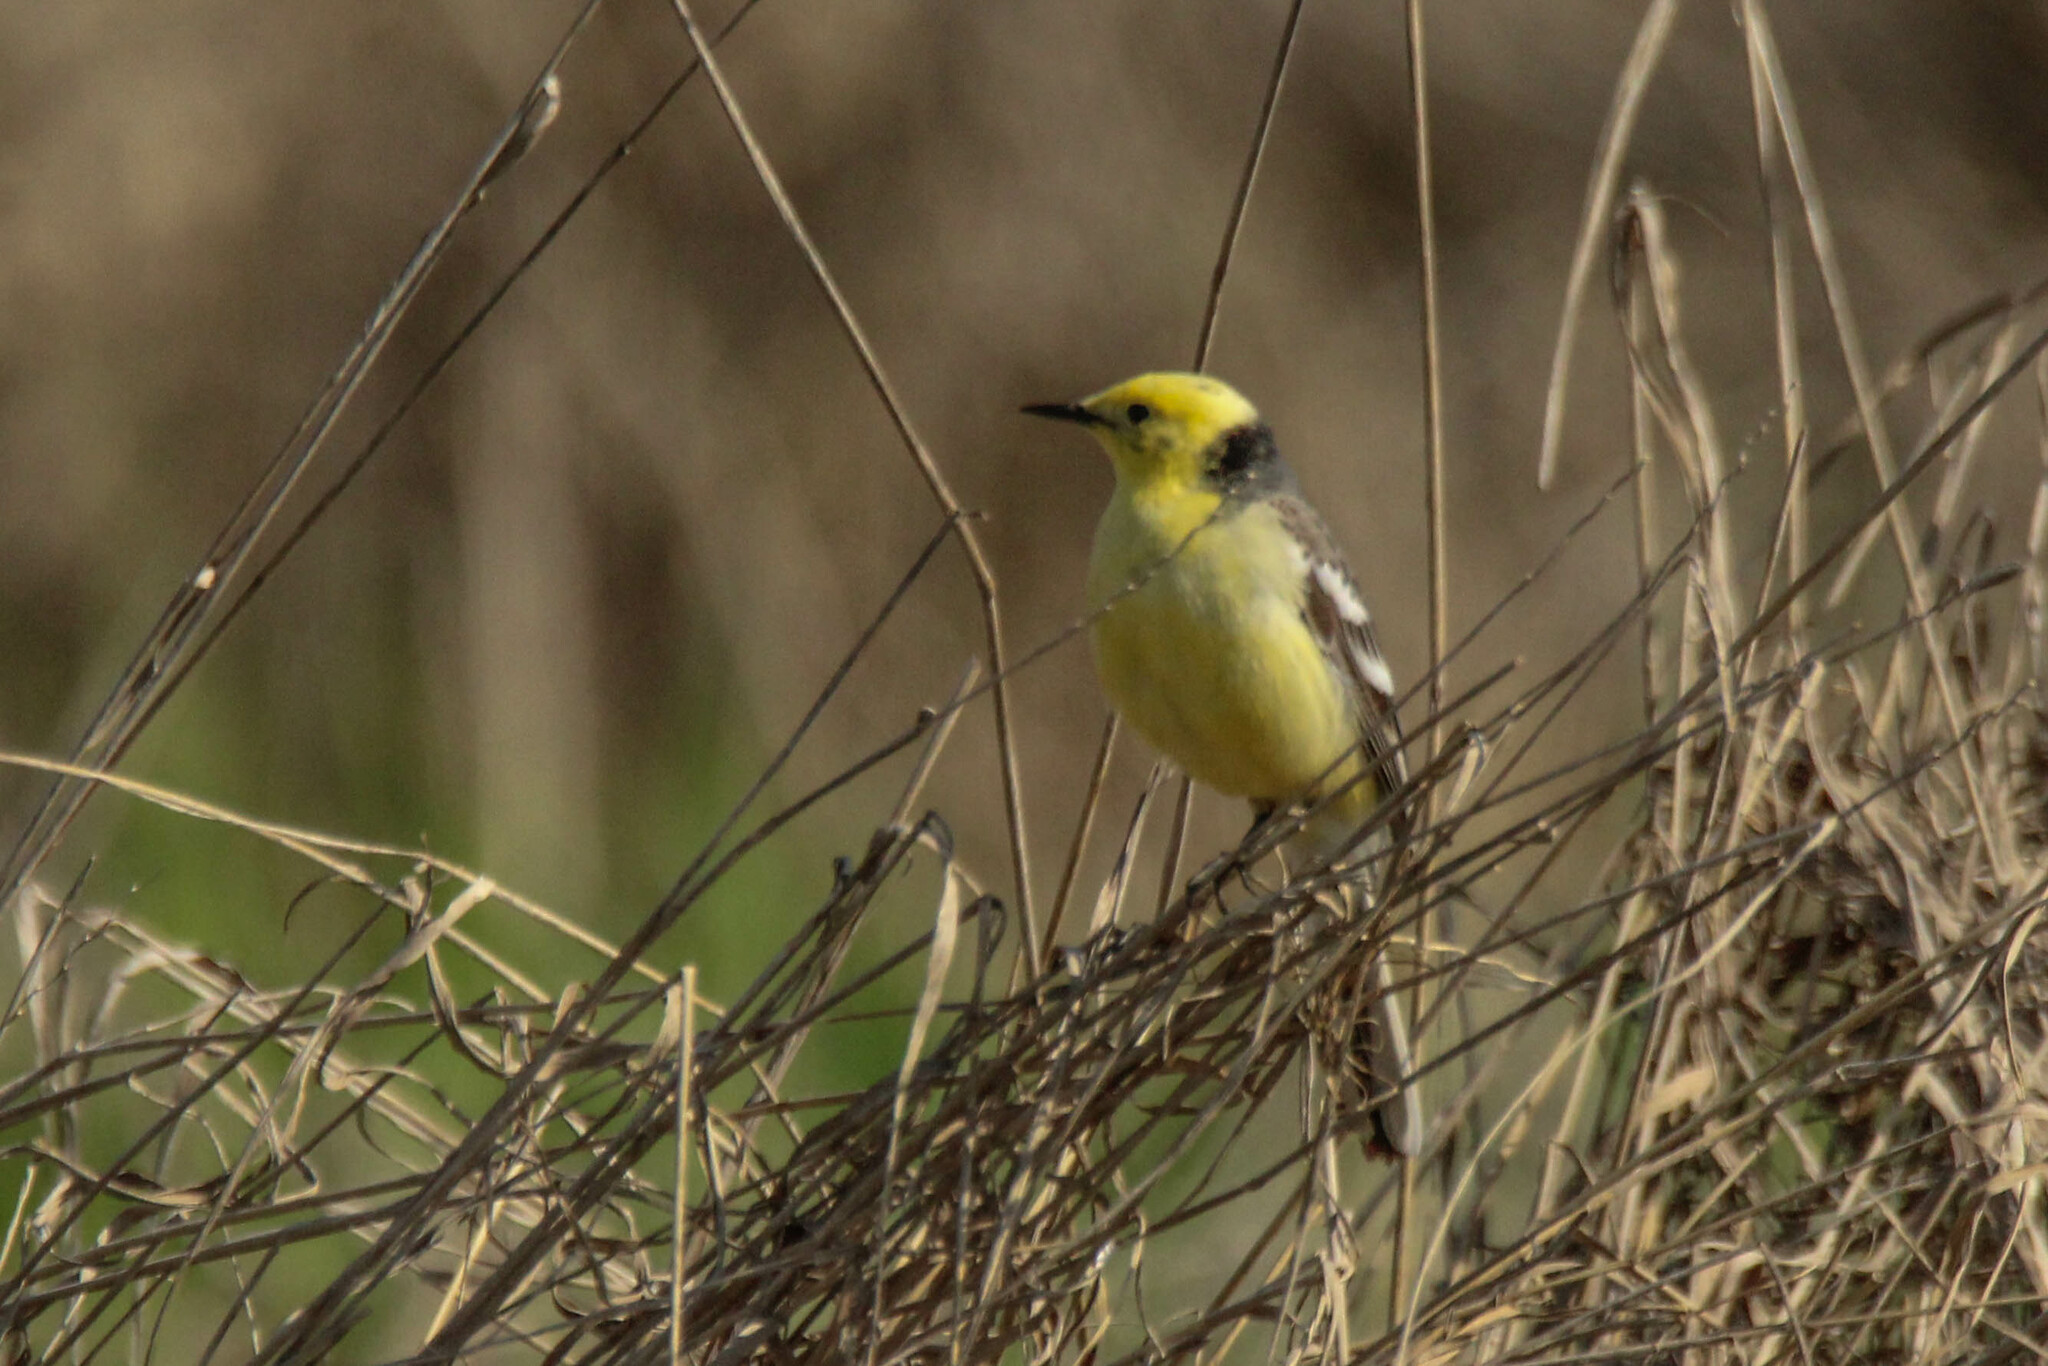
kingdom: Animalia
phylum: Chordata
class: Aves
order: Passeriformes
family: Motacillidae
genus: Motacilla
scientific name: Motacilla citreola
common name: Citrine wagtail
